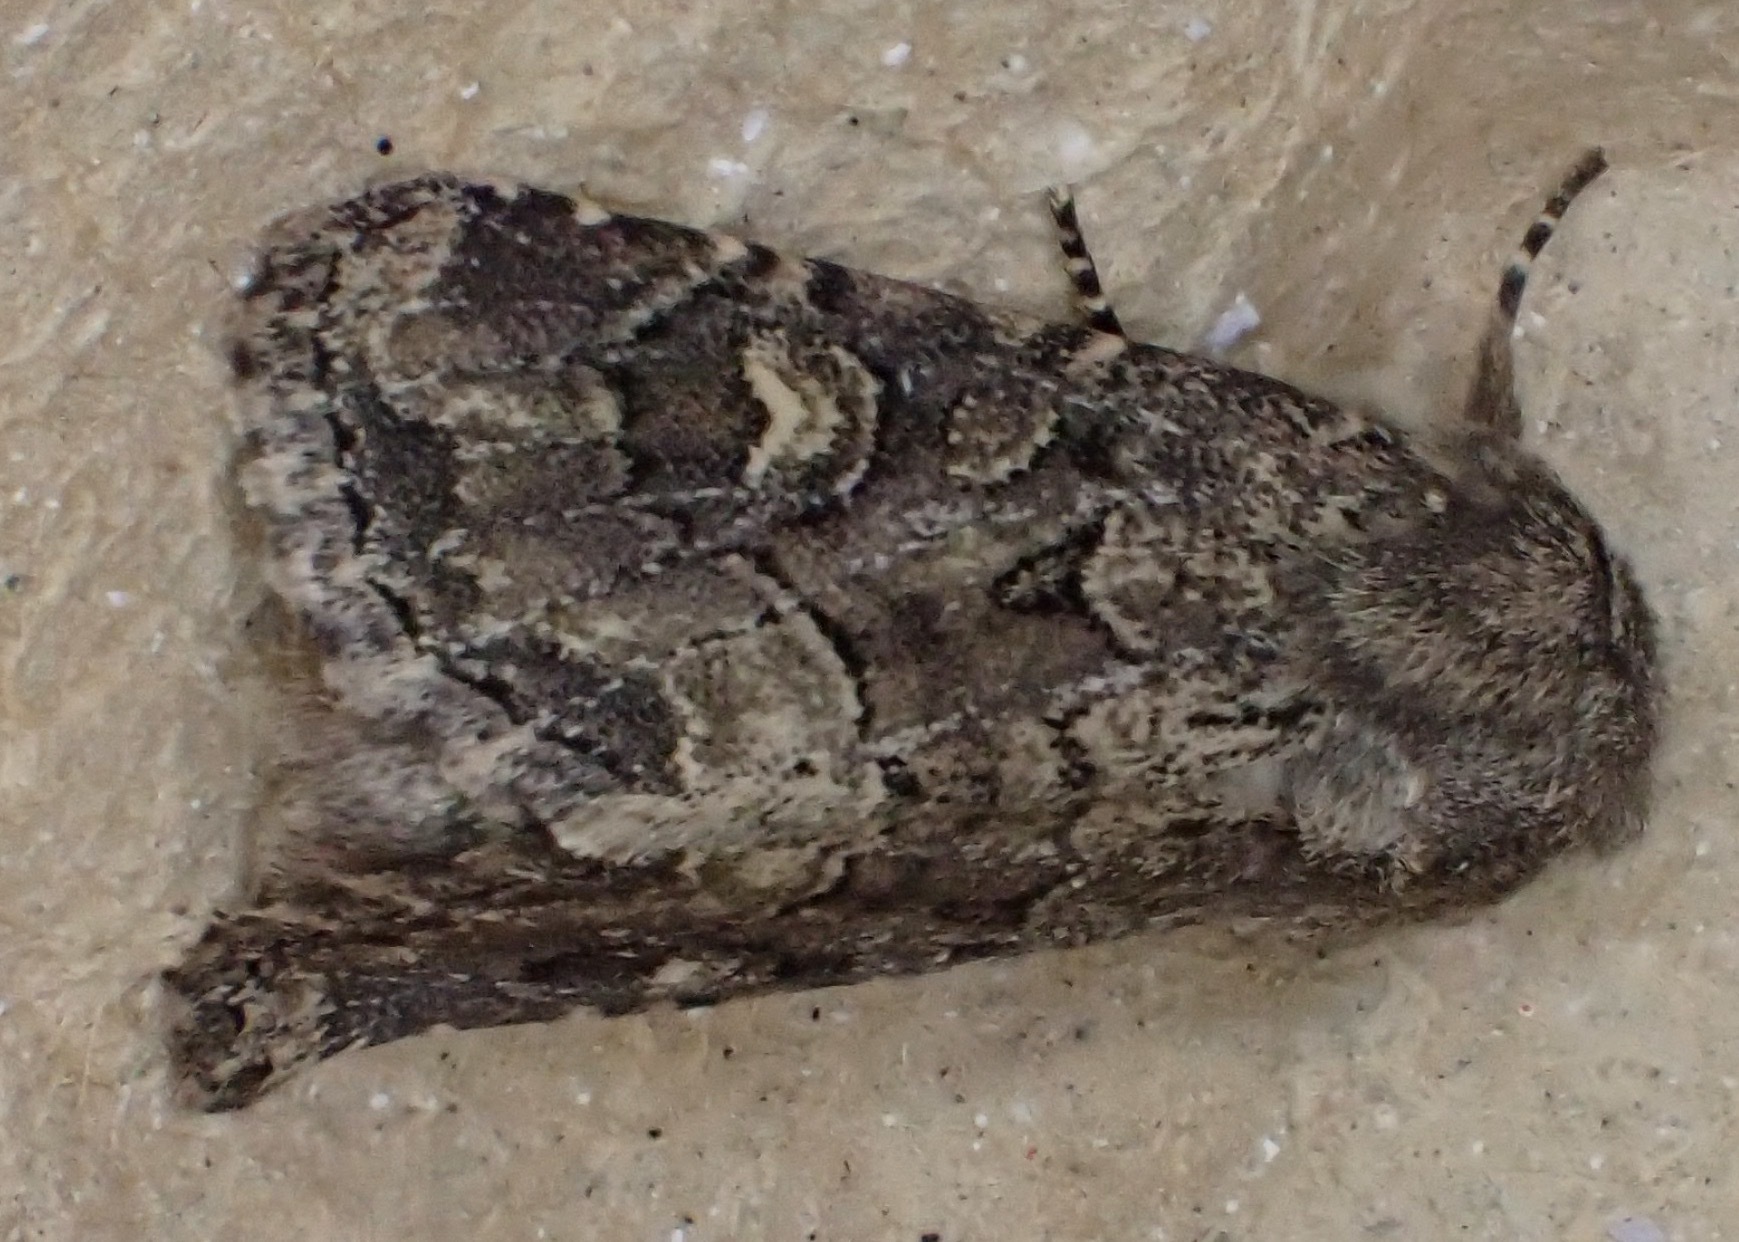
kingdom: Animalia
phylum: Arthropoda
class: Insecta
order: Lepidoptera
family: Noctuidae
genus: Luperina
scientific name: Luperina testacea
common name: Flounced rustic
